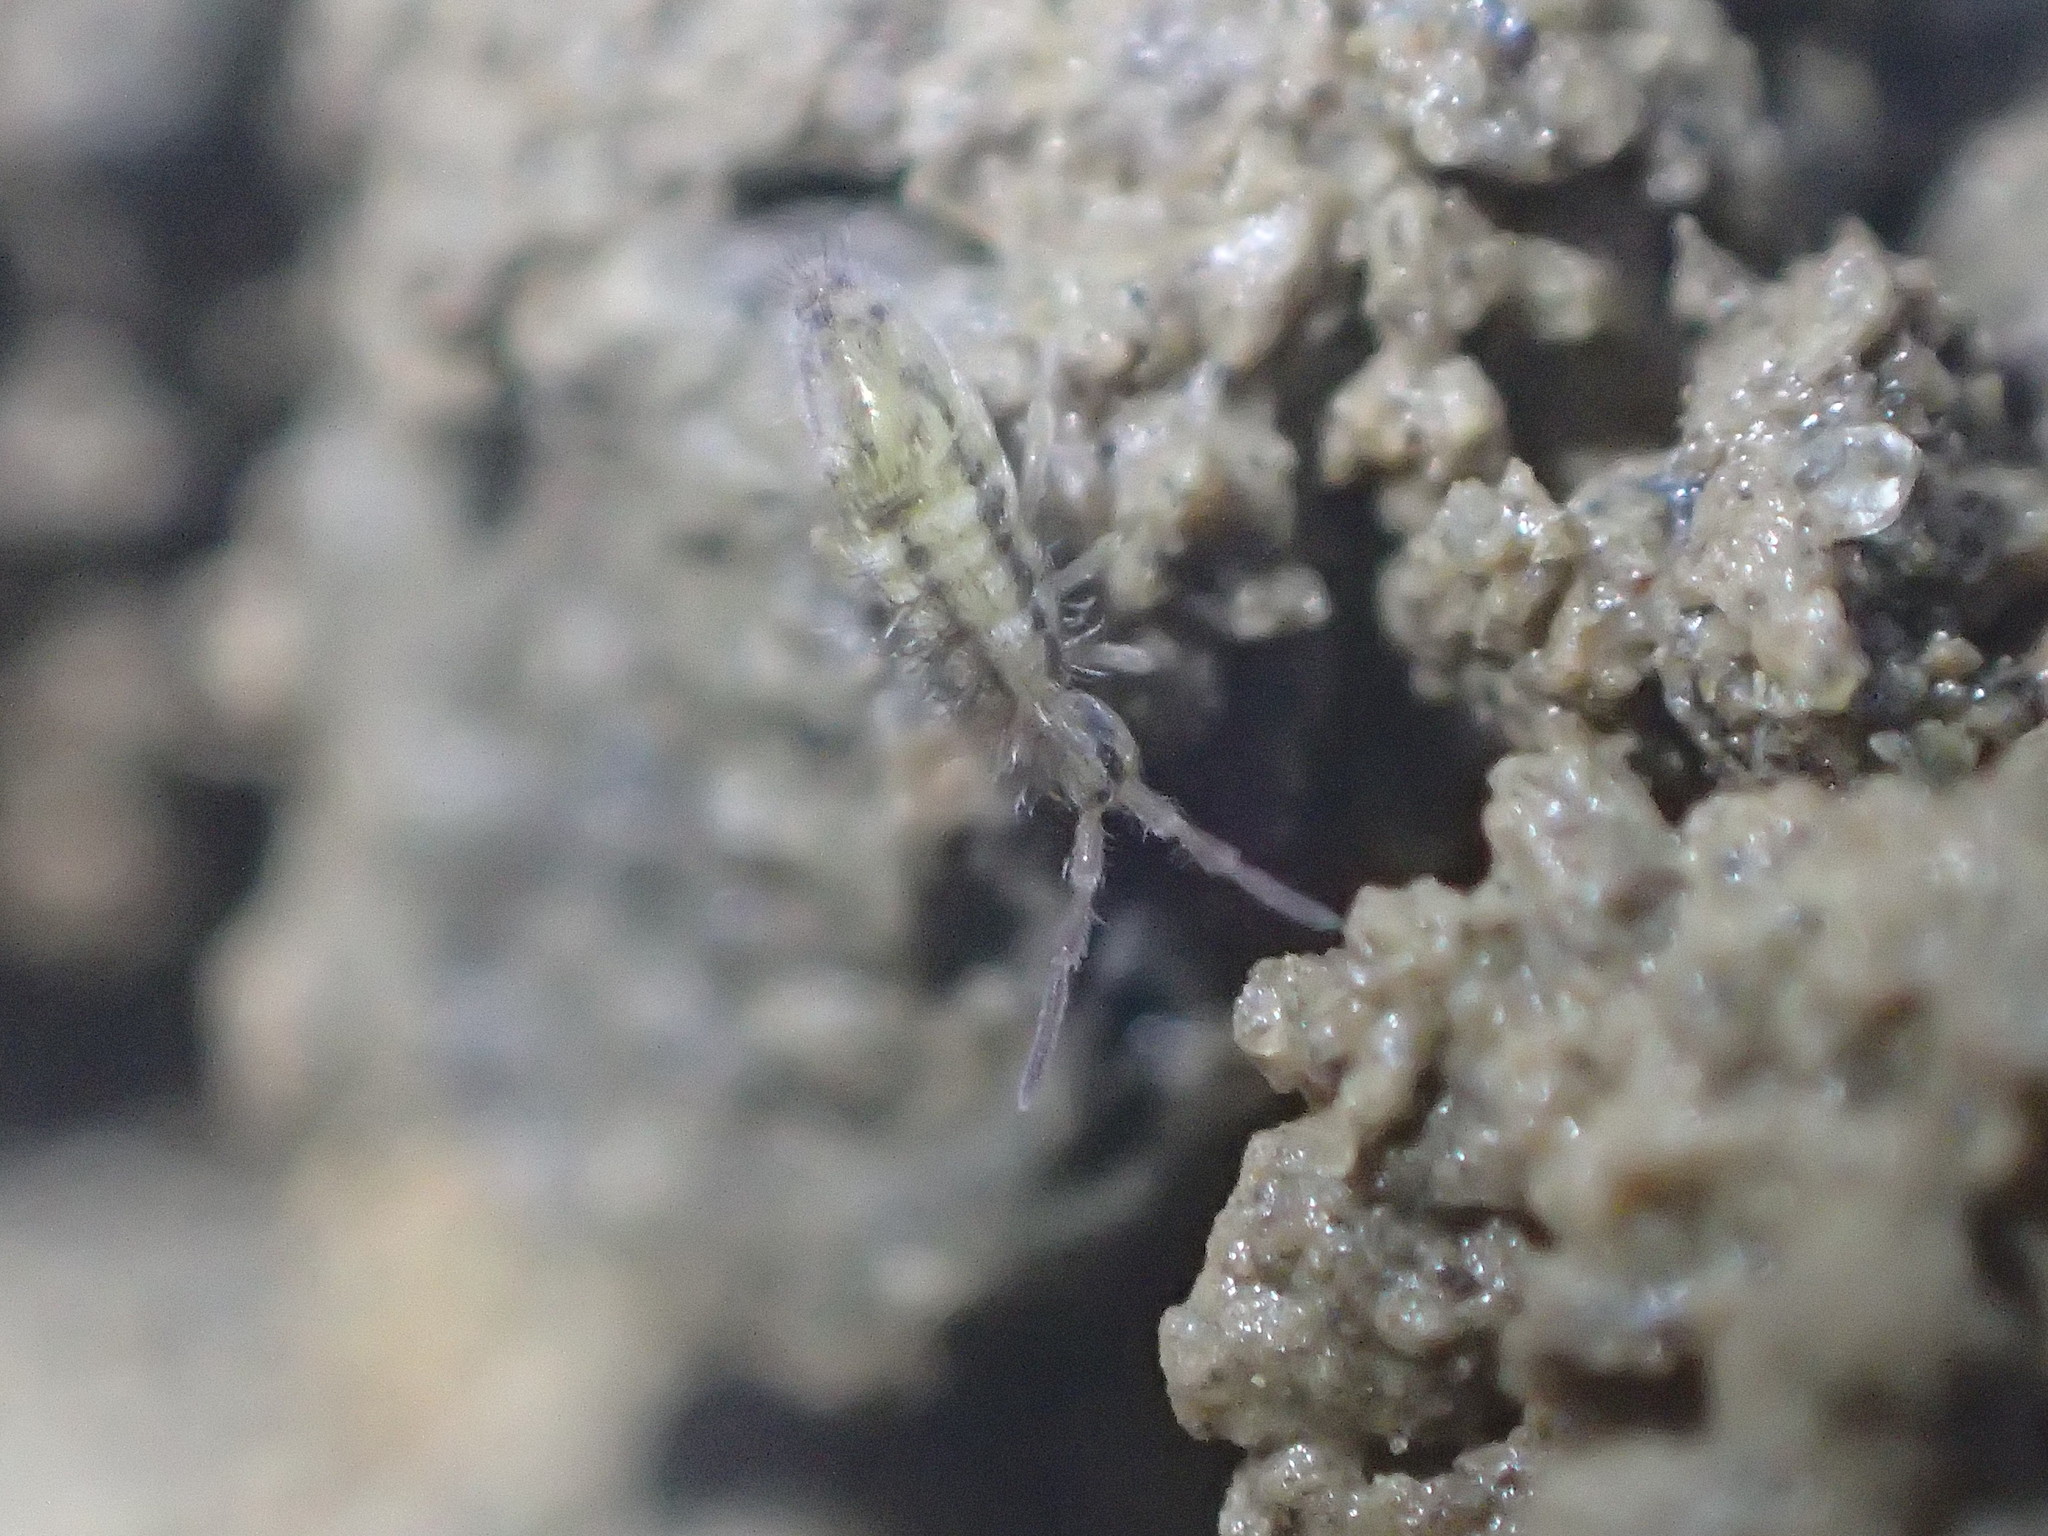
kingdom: Animalia
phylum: Arthropoda
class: Collembola
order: Entomobryomorpha
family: Entomobryidae
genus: Homidia
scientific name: Homidia socia
